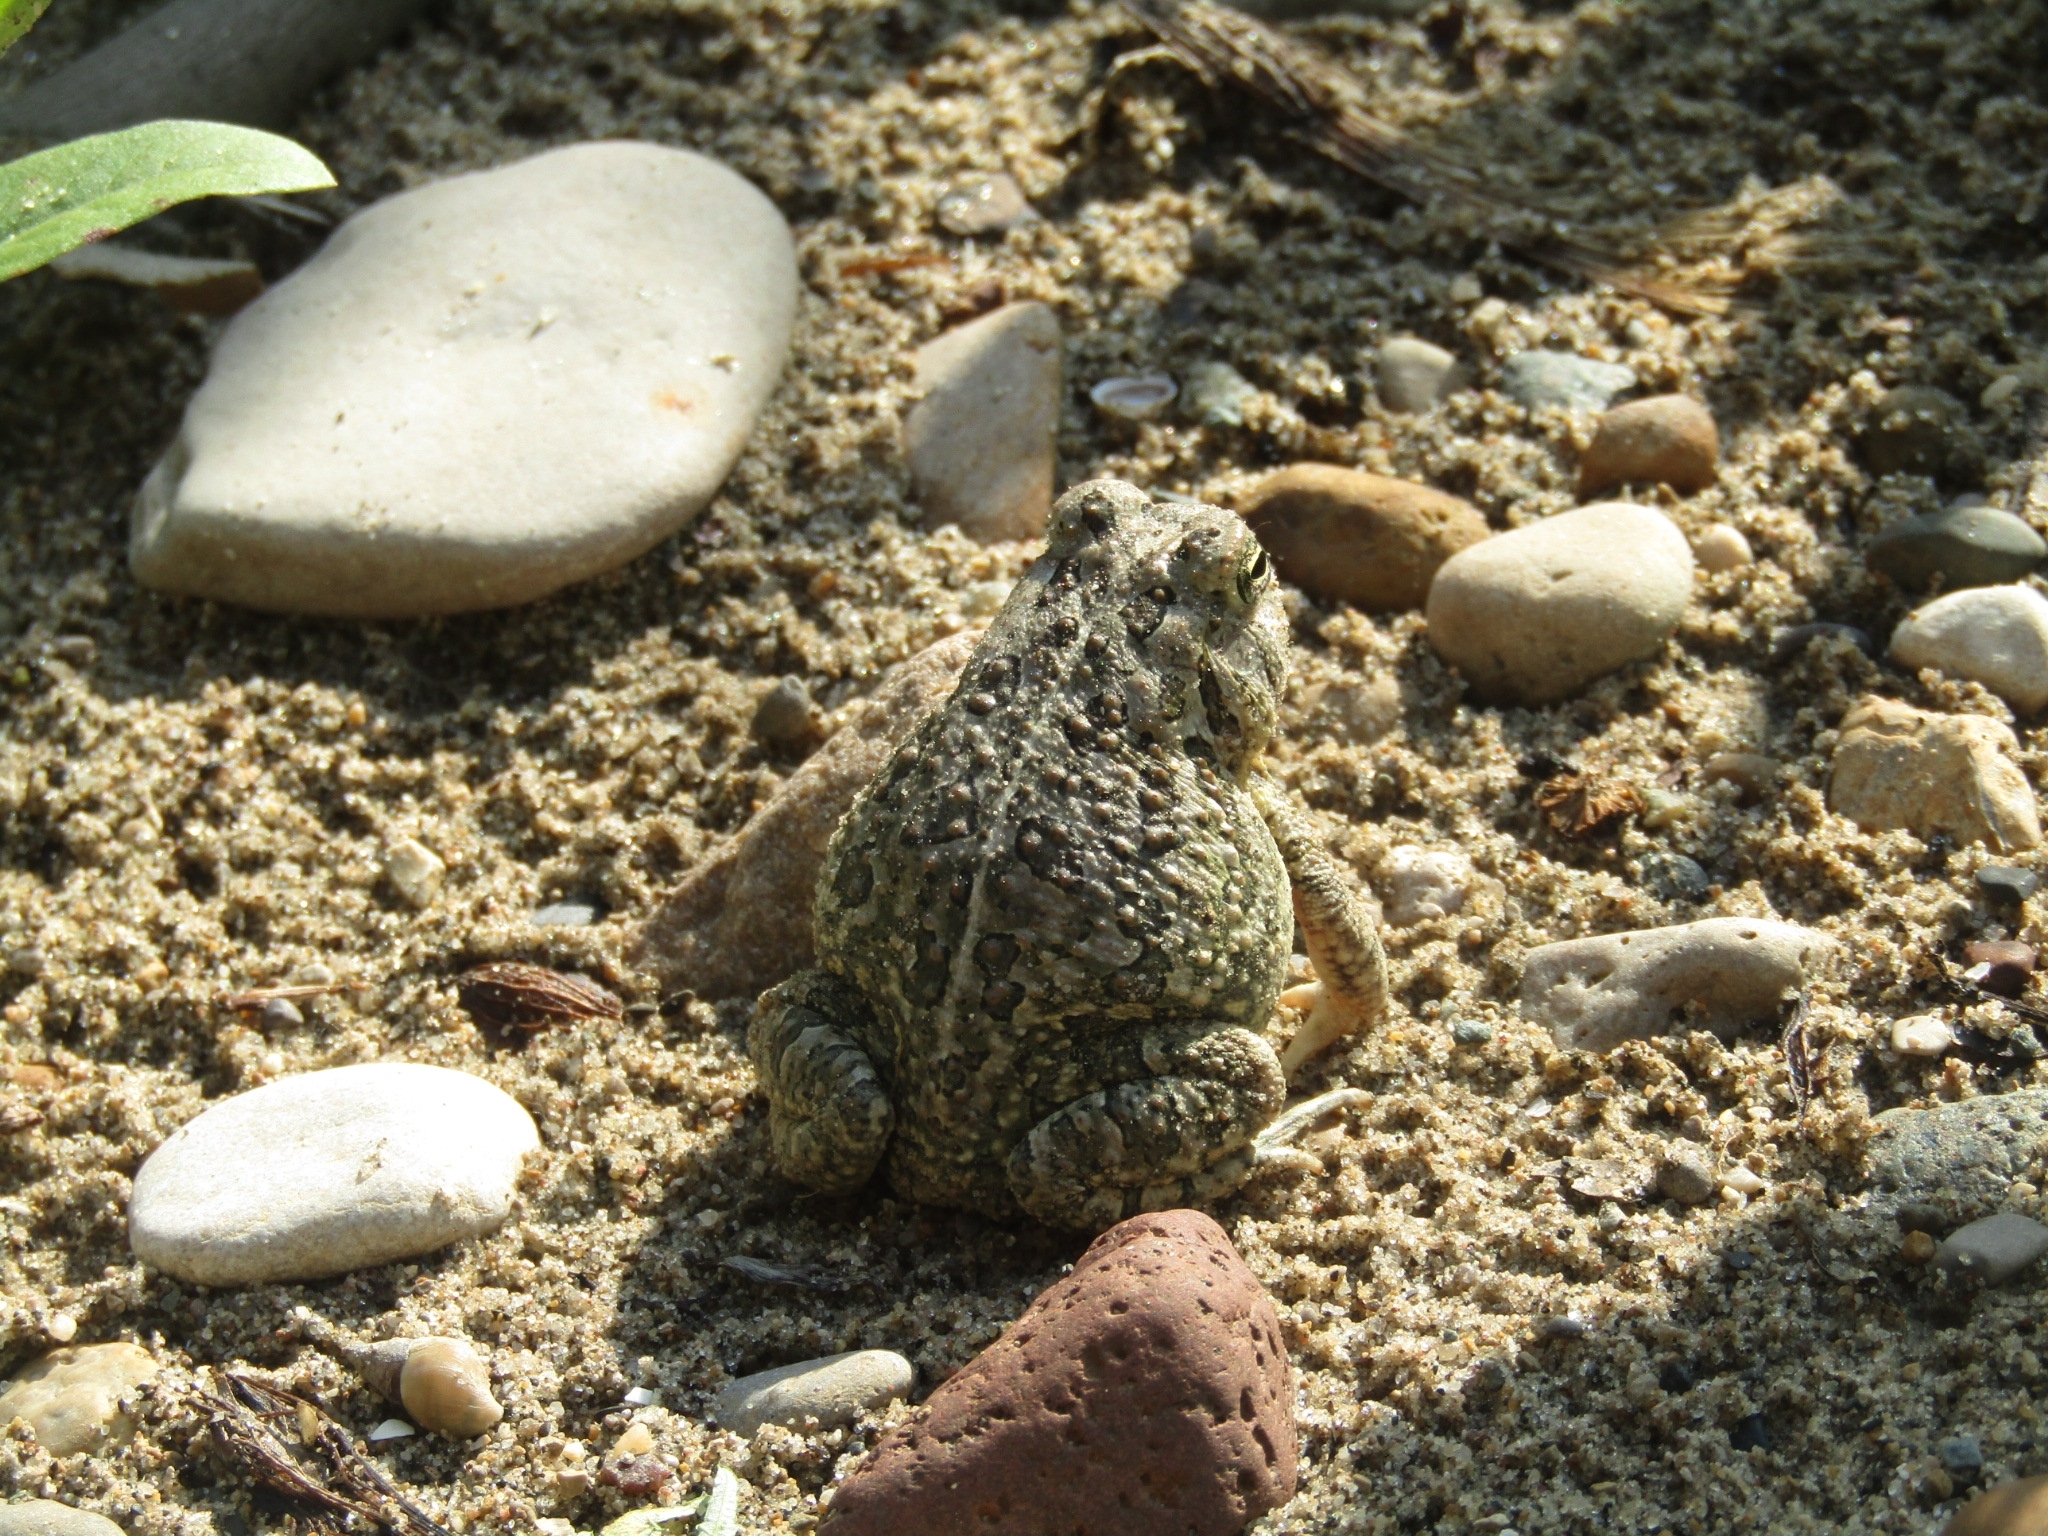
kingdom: Animalia
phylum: Chordata
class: Amphibia
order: Anura
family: Bufonidae
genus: Anaxyrus
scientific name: Anaxyrus fowleri
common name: Fowler's toad
